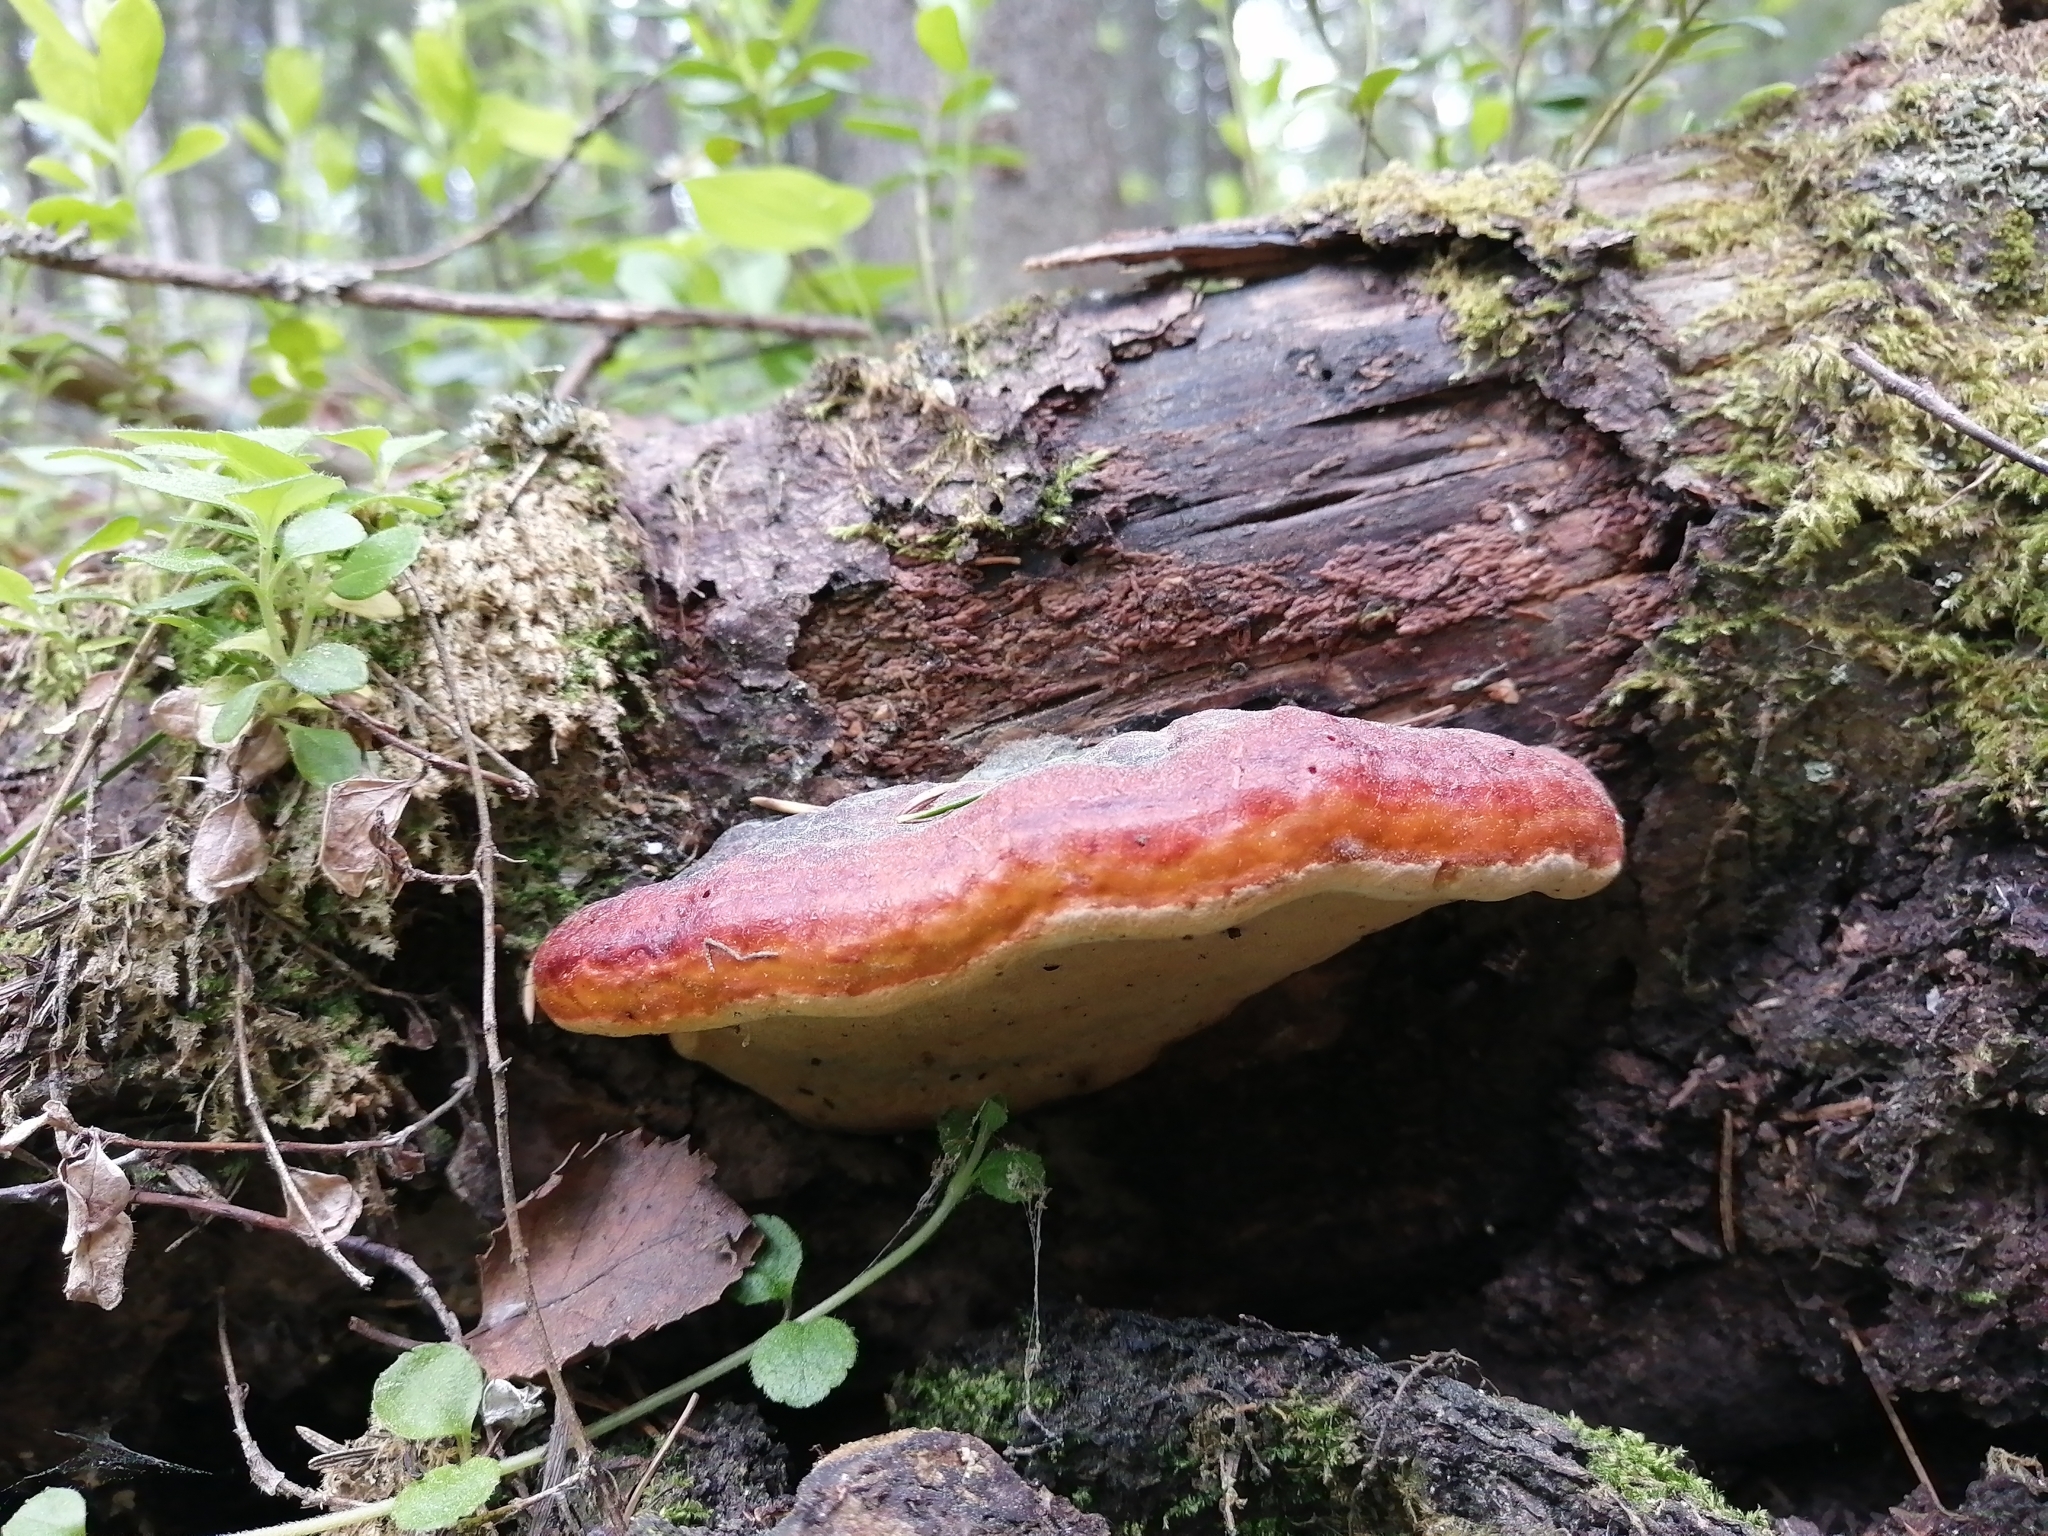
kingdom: Fungi
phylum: Basidiomycota
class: Agaricomycetes
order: Polyporales
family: Fomitopsidaceae
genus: Fomitopsis
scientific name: Fomitopsis pinicola
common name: Red-belted bracket
